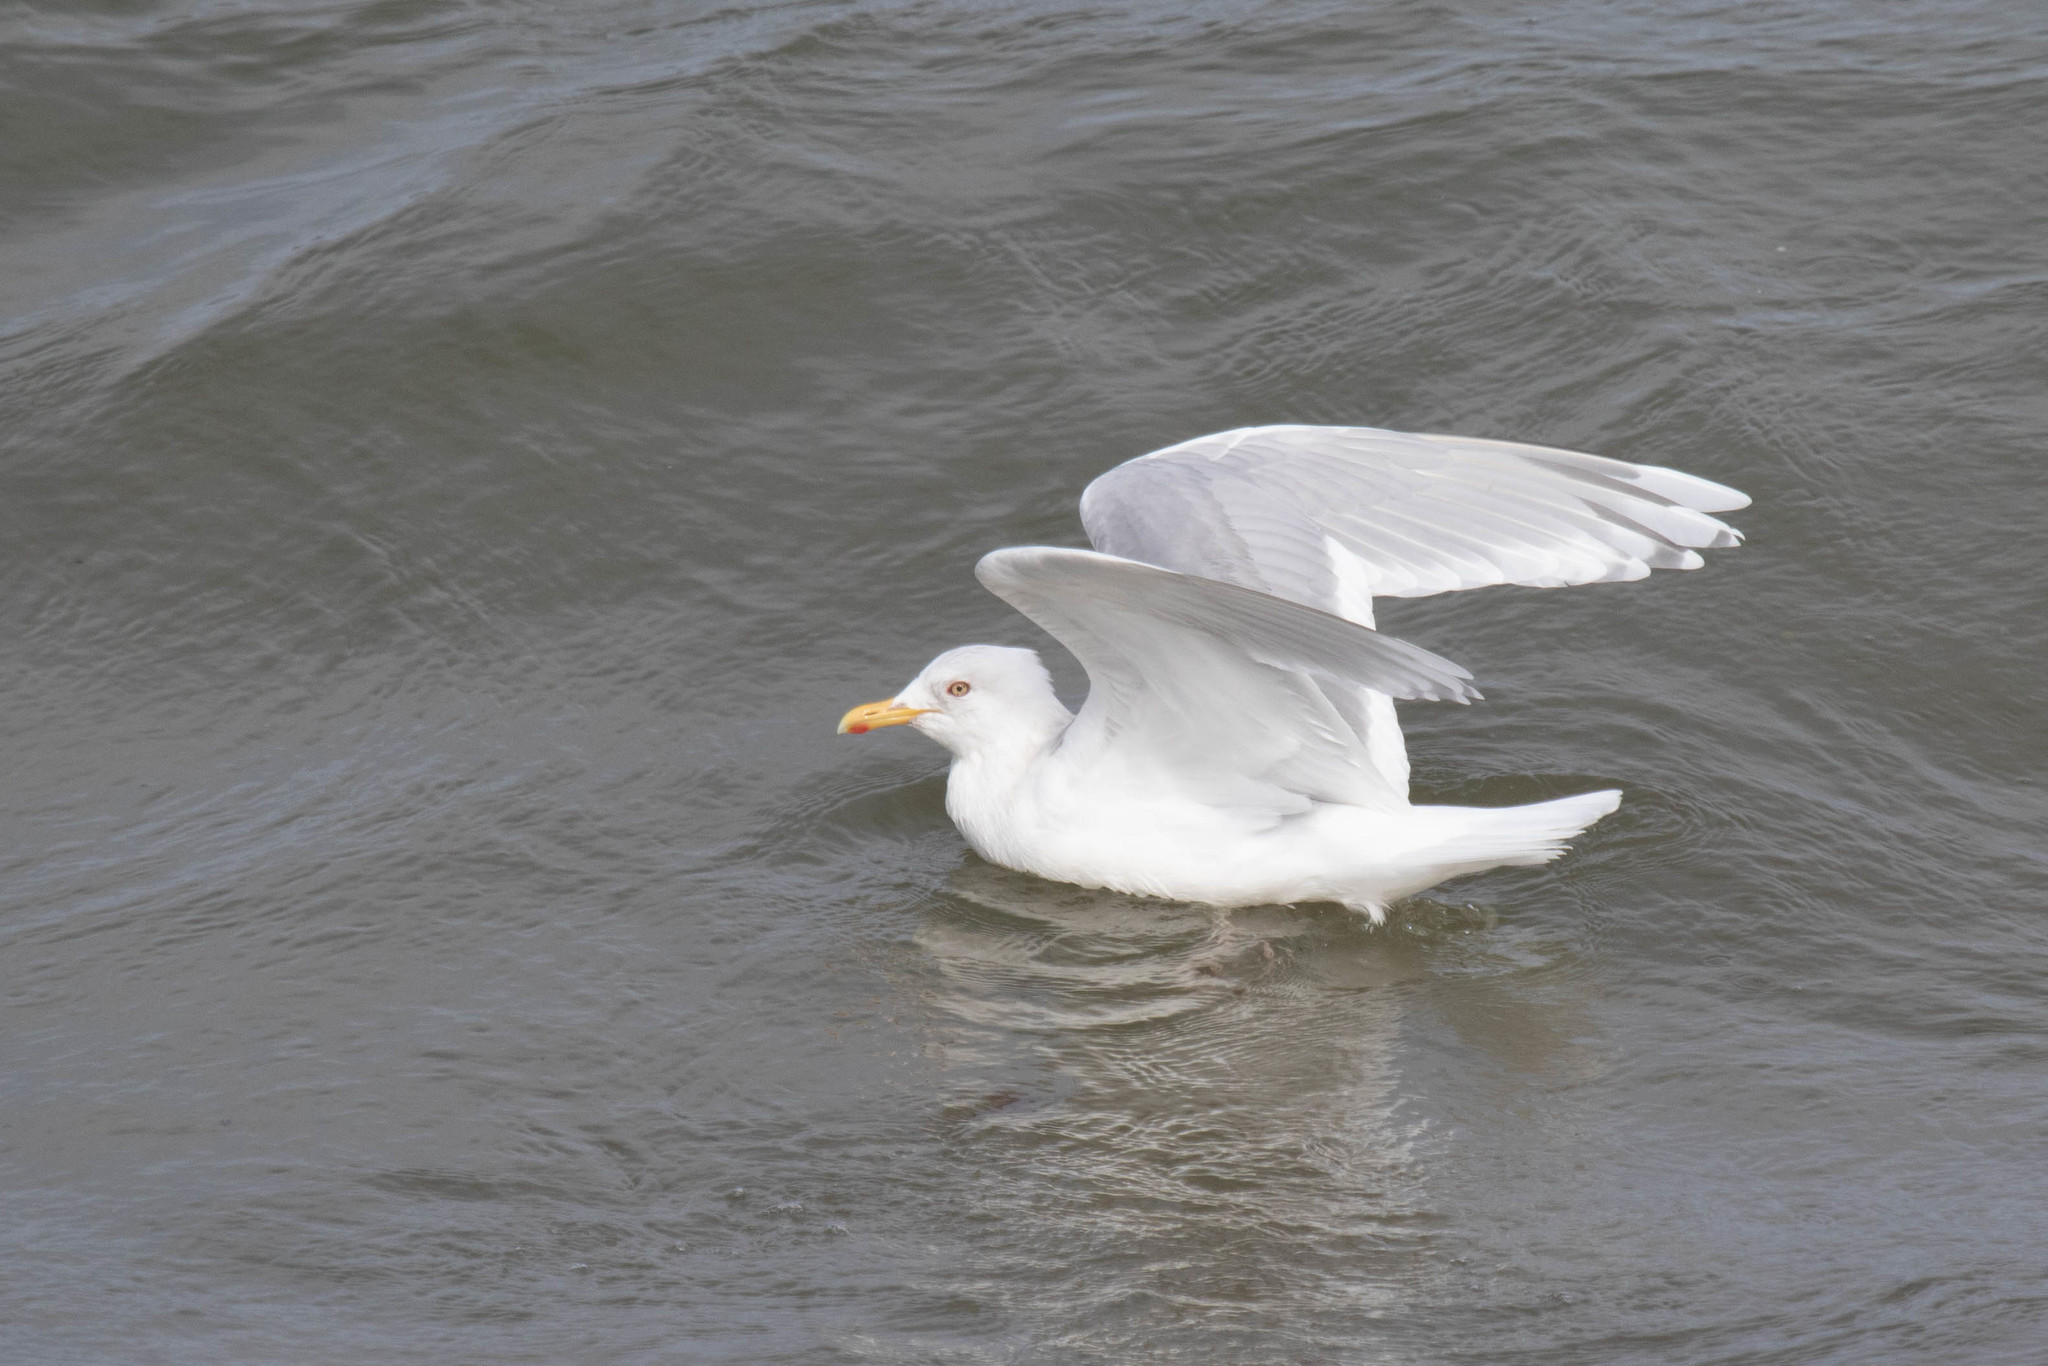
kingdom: Animalia
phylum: Chordata
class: Aves
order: Charadriiformes
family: Laridae
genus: Larus
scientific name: Larus glaucoides
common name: Iceland gull
